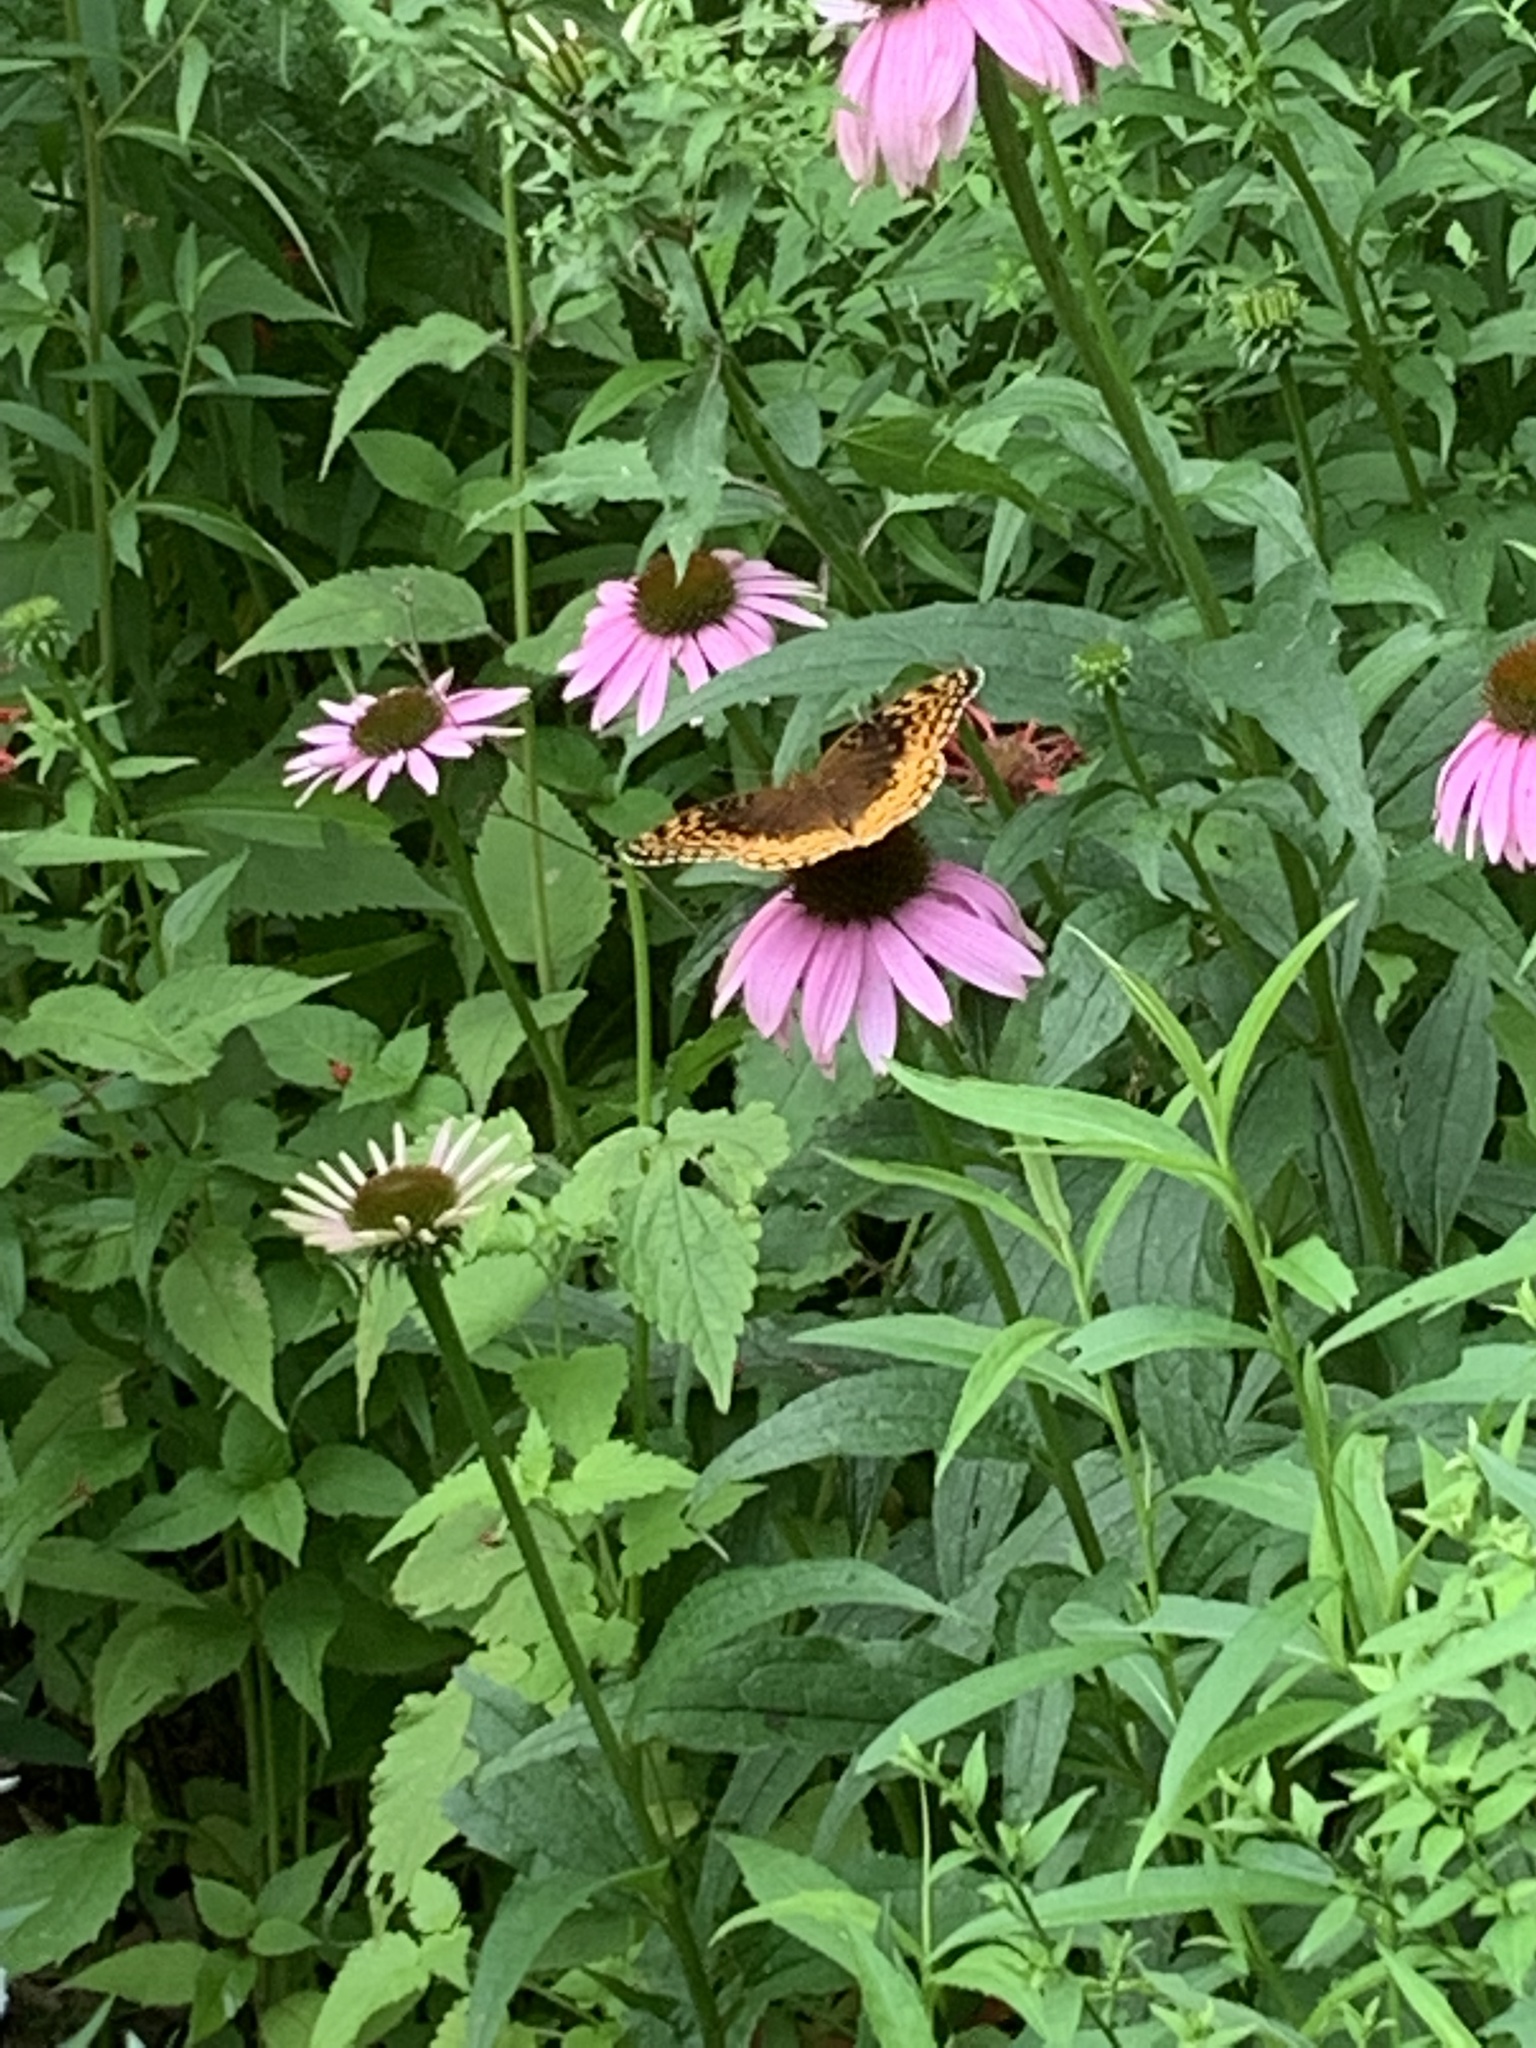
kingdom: Animalia
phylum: Arthropoda
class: Insecta
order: Lepidoptera
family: Nymphalidae
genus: Speyeria
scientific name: Speyeria cybele
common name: Great spangled fritillary
